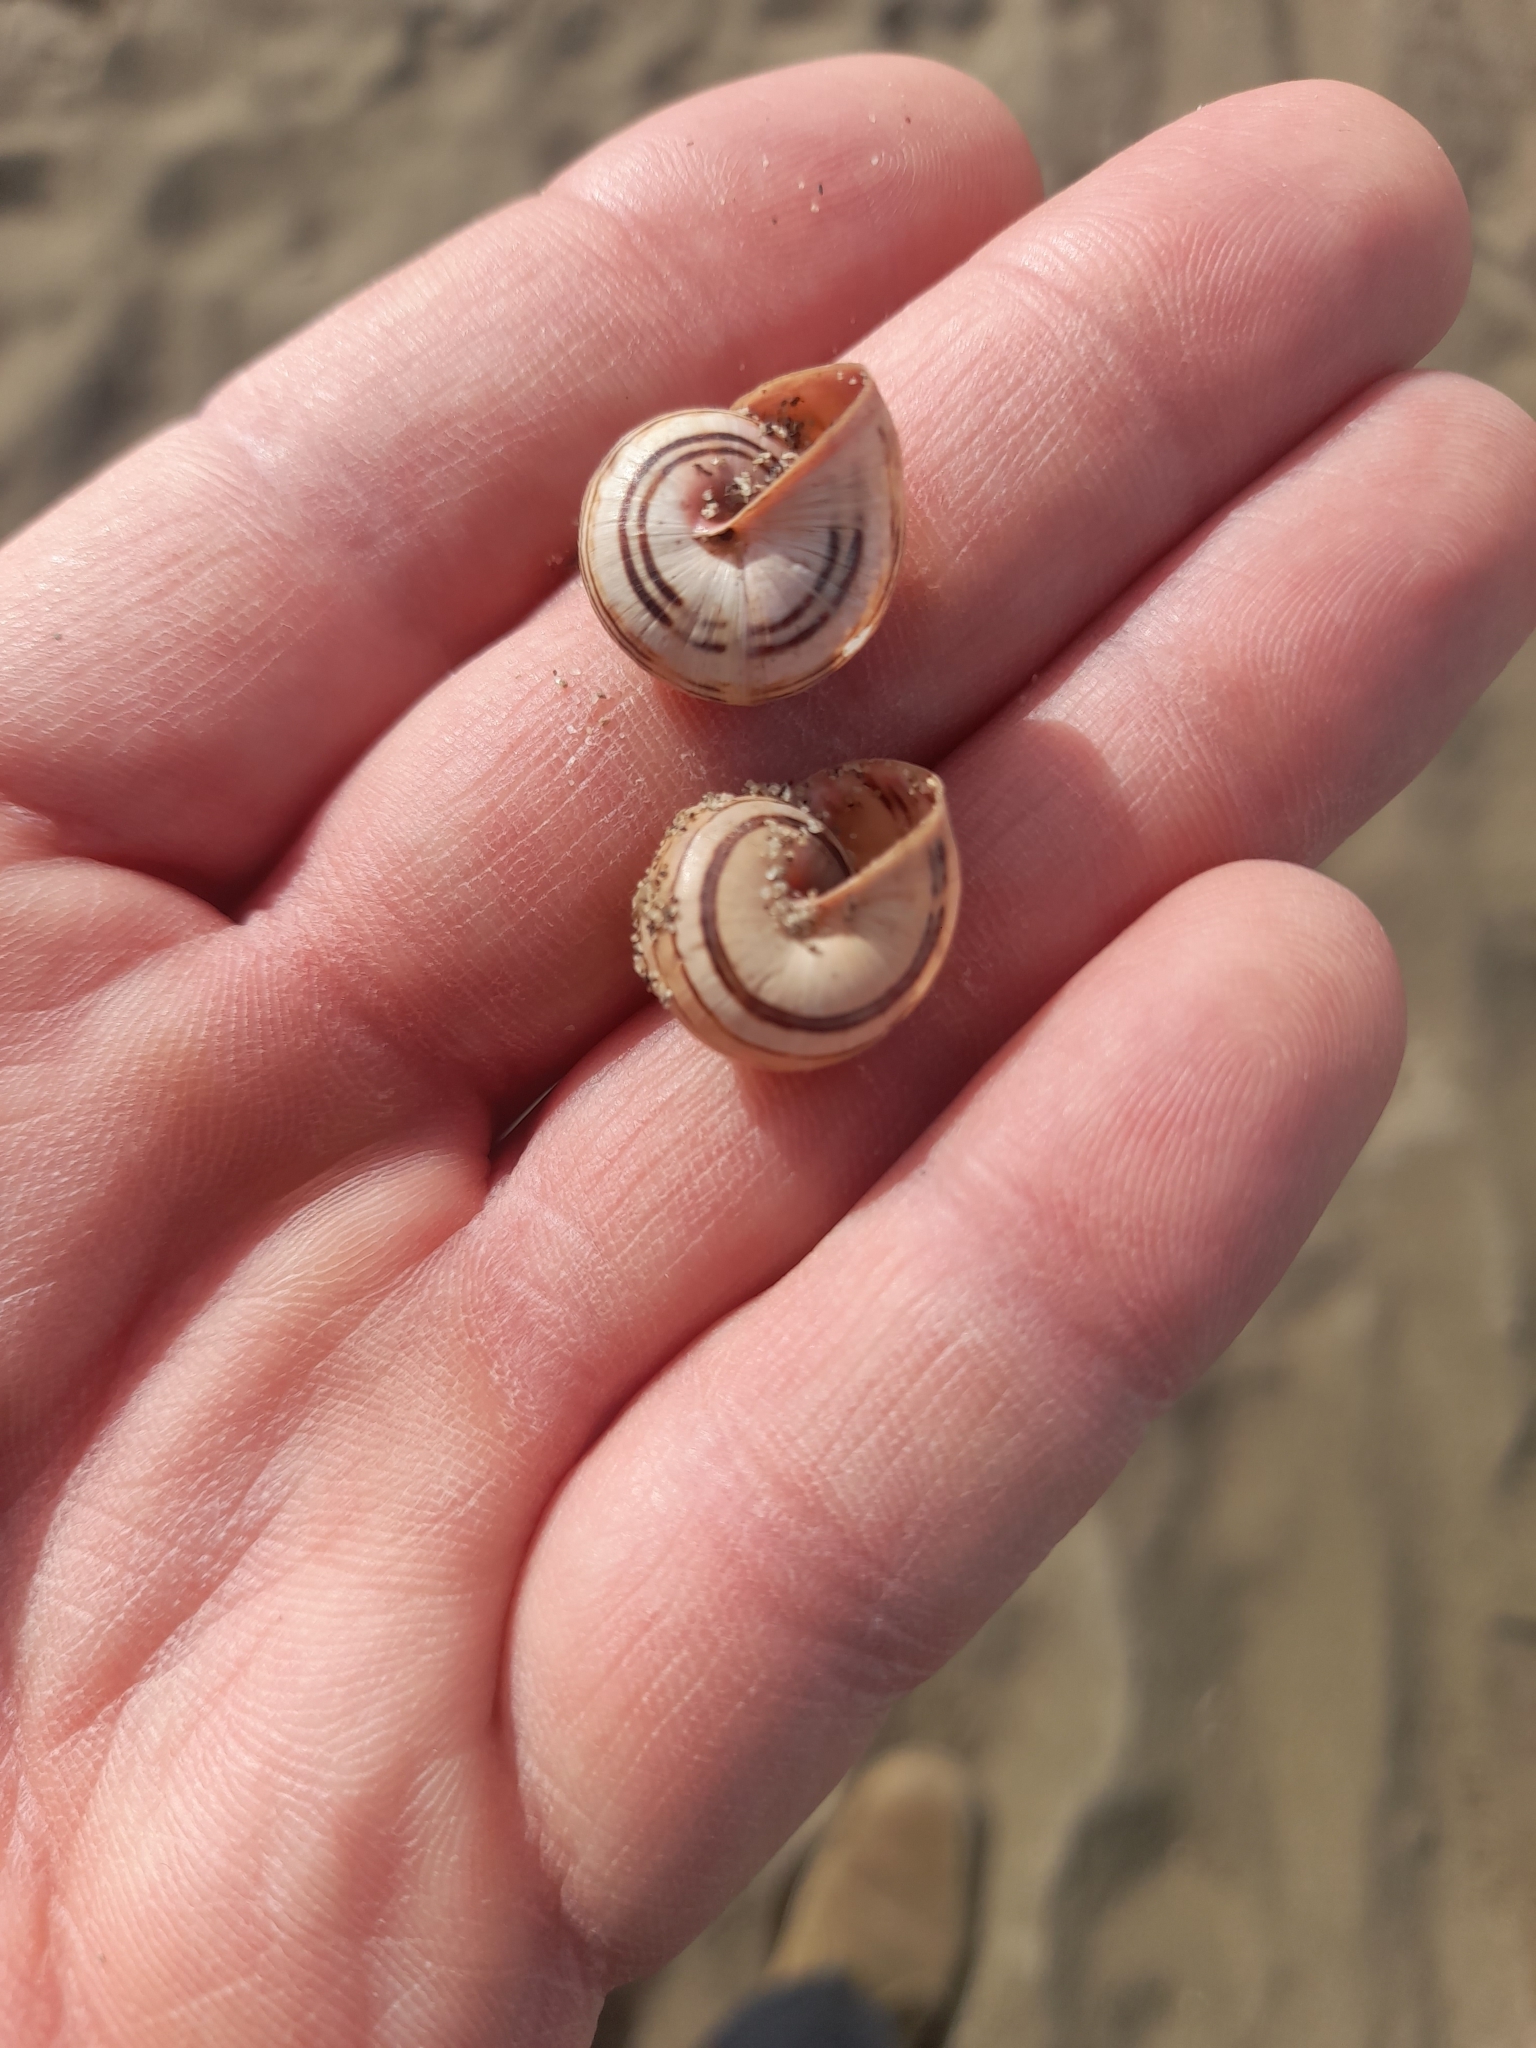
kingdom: Animalia
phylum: Mollusca
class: Gastropoda
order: Stylommatophora
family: Helicidae
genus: Theba
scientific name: Theba pisana
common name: White snail
